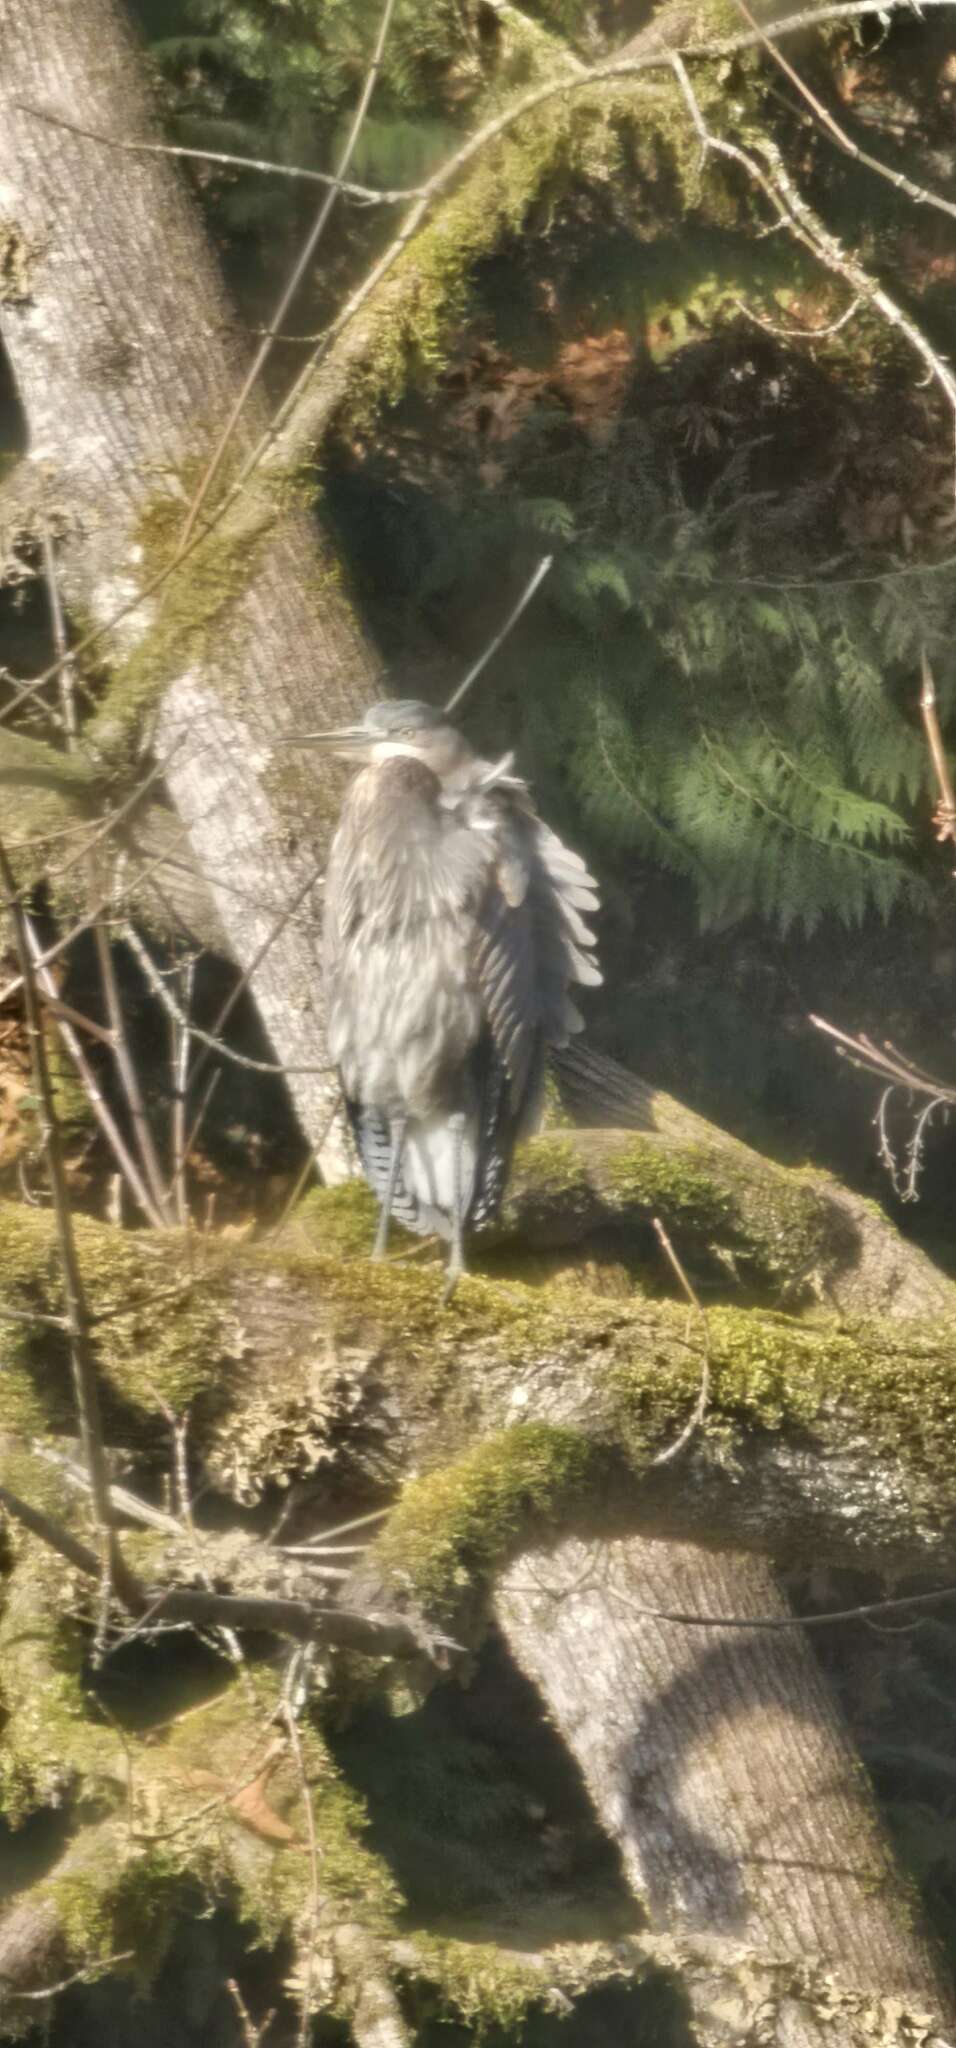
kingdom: Animalia
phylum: Chordata
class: Aves
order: Pelecaniformes
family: Ardeidae
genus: Ardea
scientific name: Ardea herodias
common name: Great blue heron
